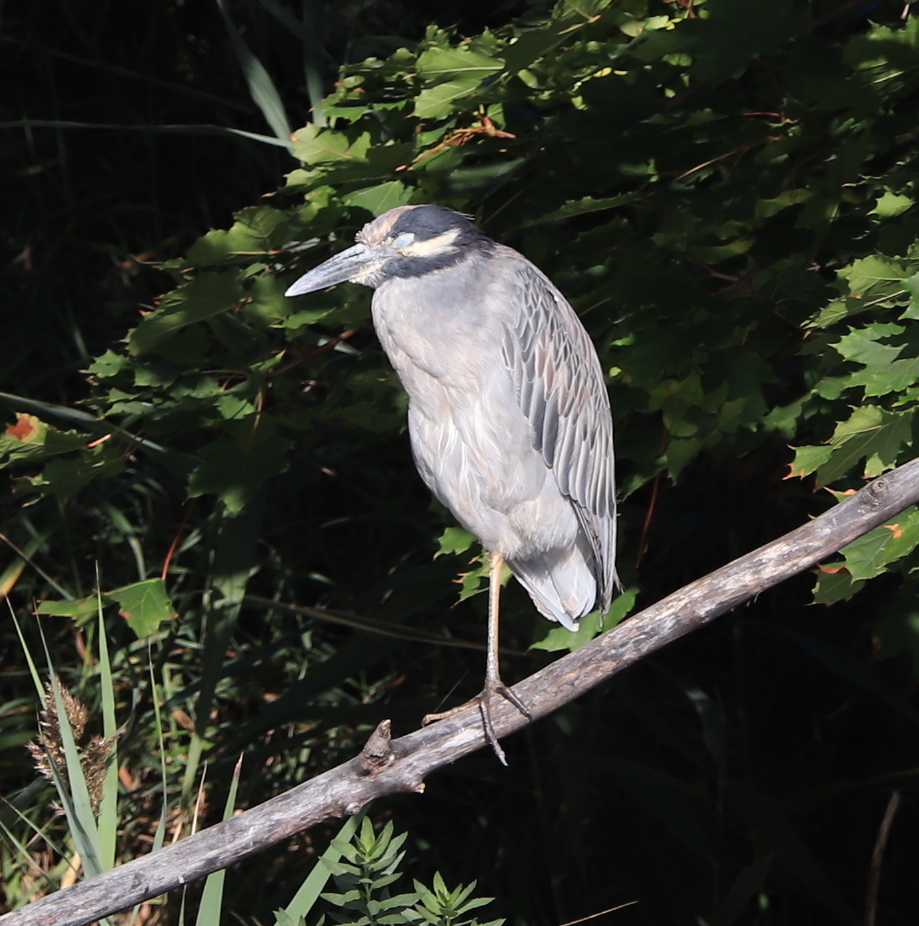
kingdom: Animalia
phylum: Chordata
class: Aves
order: Pelecaniformes
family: Ardeidae
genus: Nyctanassa
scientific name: Nyctanassa violacea
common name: Yellow-crowned night heron
